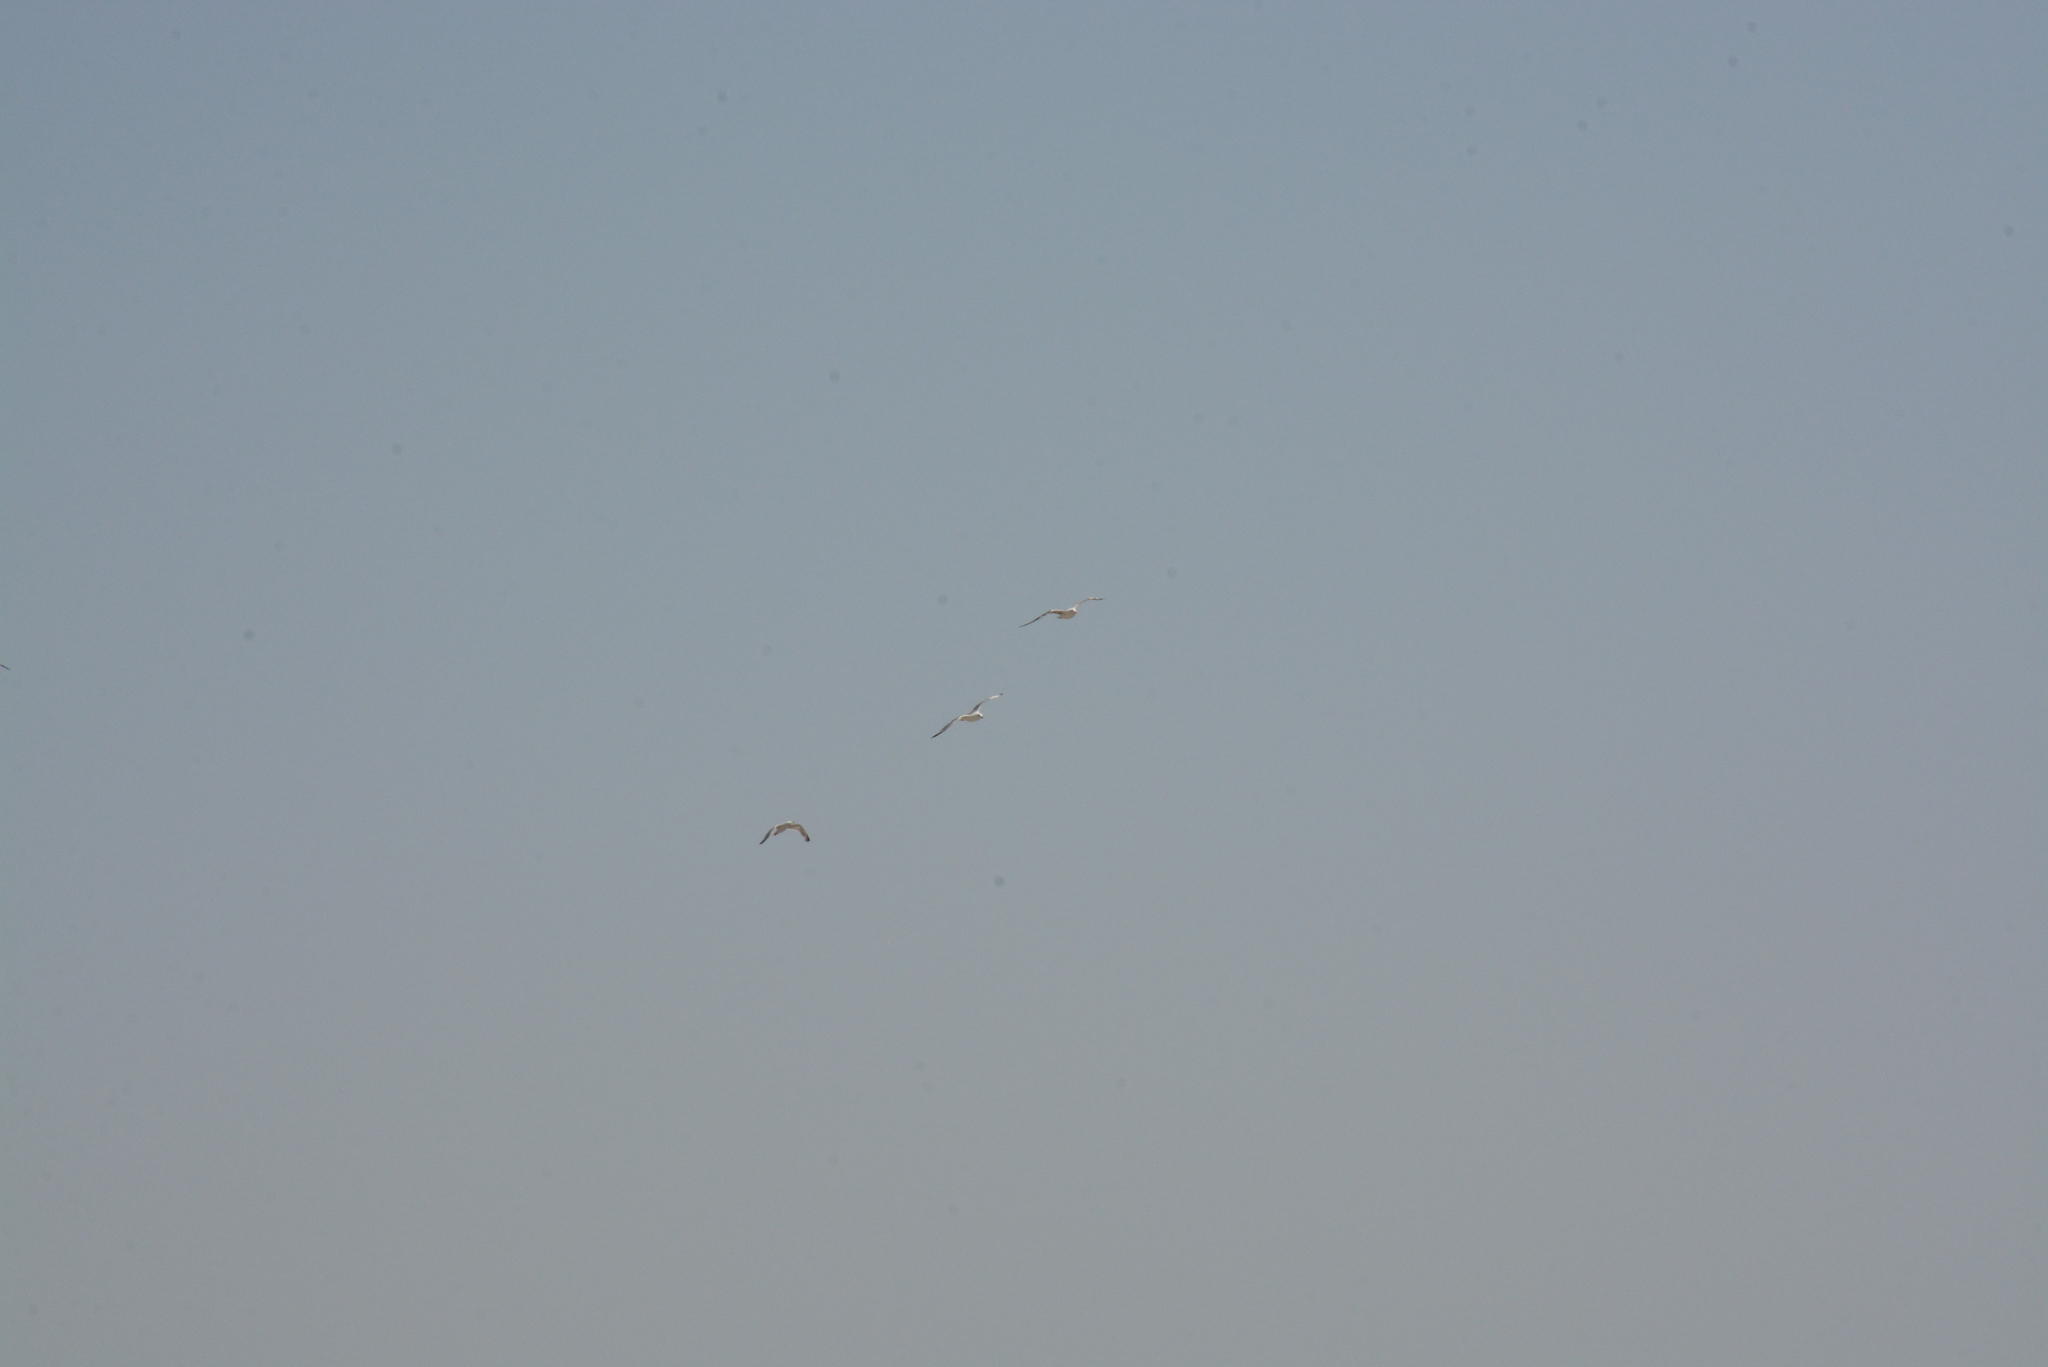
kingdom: Animalia
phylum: Chordata
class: Aves
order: Charadriiformes
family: Laridae
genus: Larus
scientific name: Larus michahellis
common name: Yellow-legged gull
